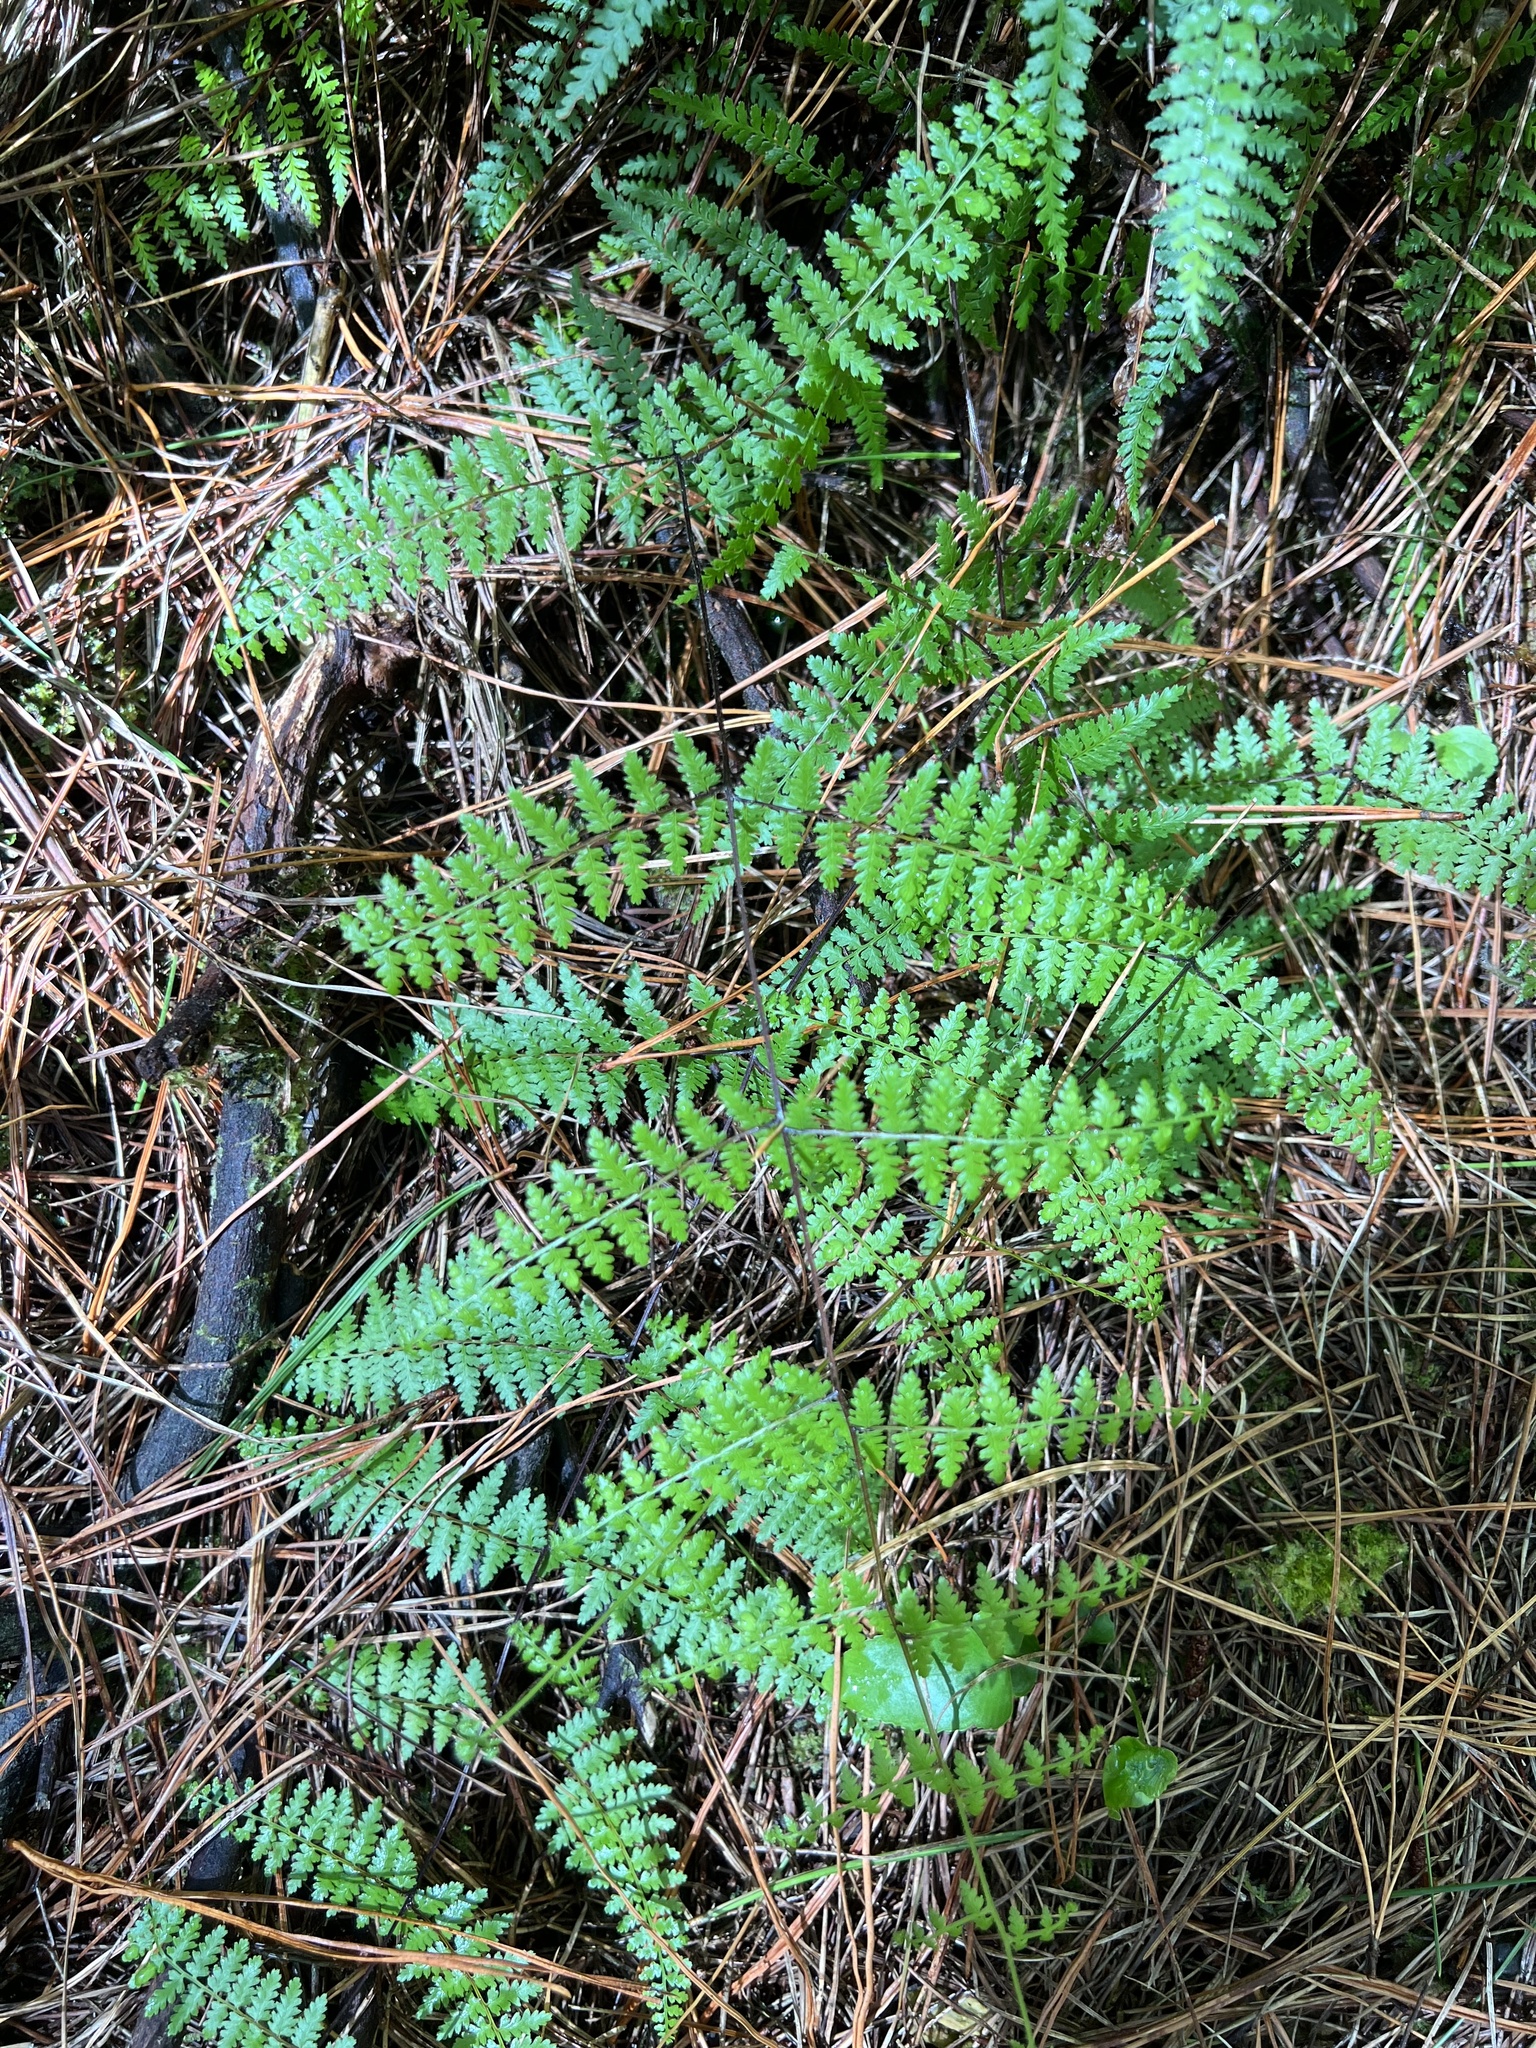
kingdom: Plantae
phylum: Tracheophyta
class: Polypodiopsida
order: Polypodiales
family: Dennstaedtiaceae
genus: Hiya
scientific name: Hiya distans
